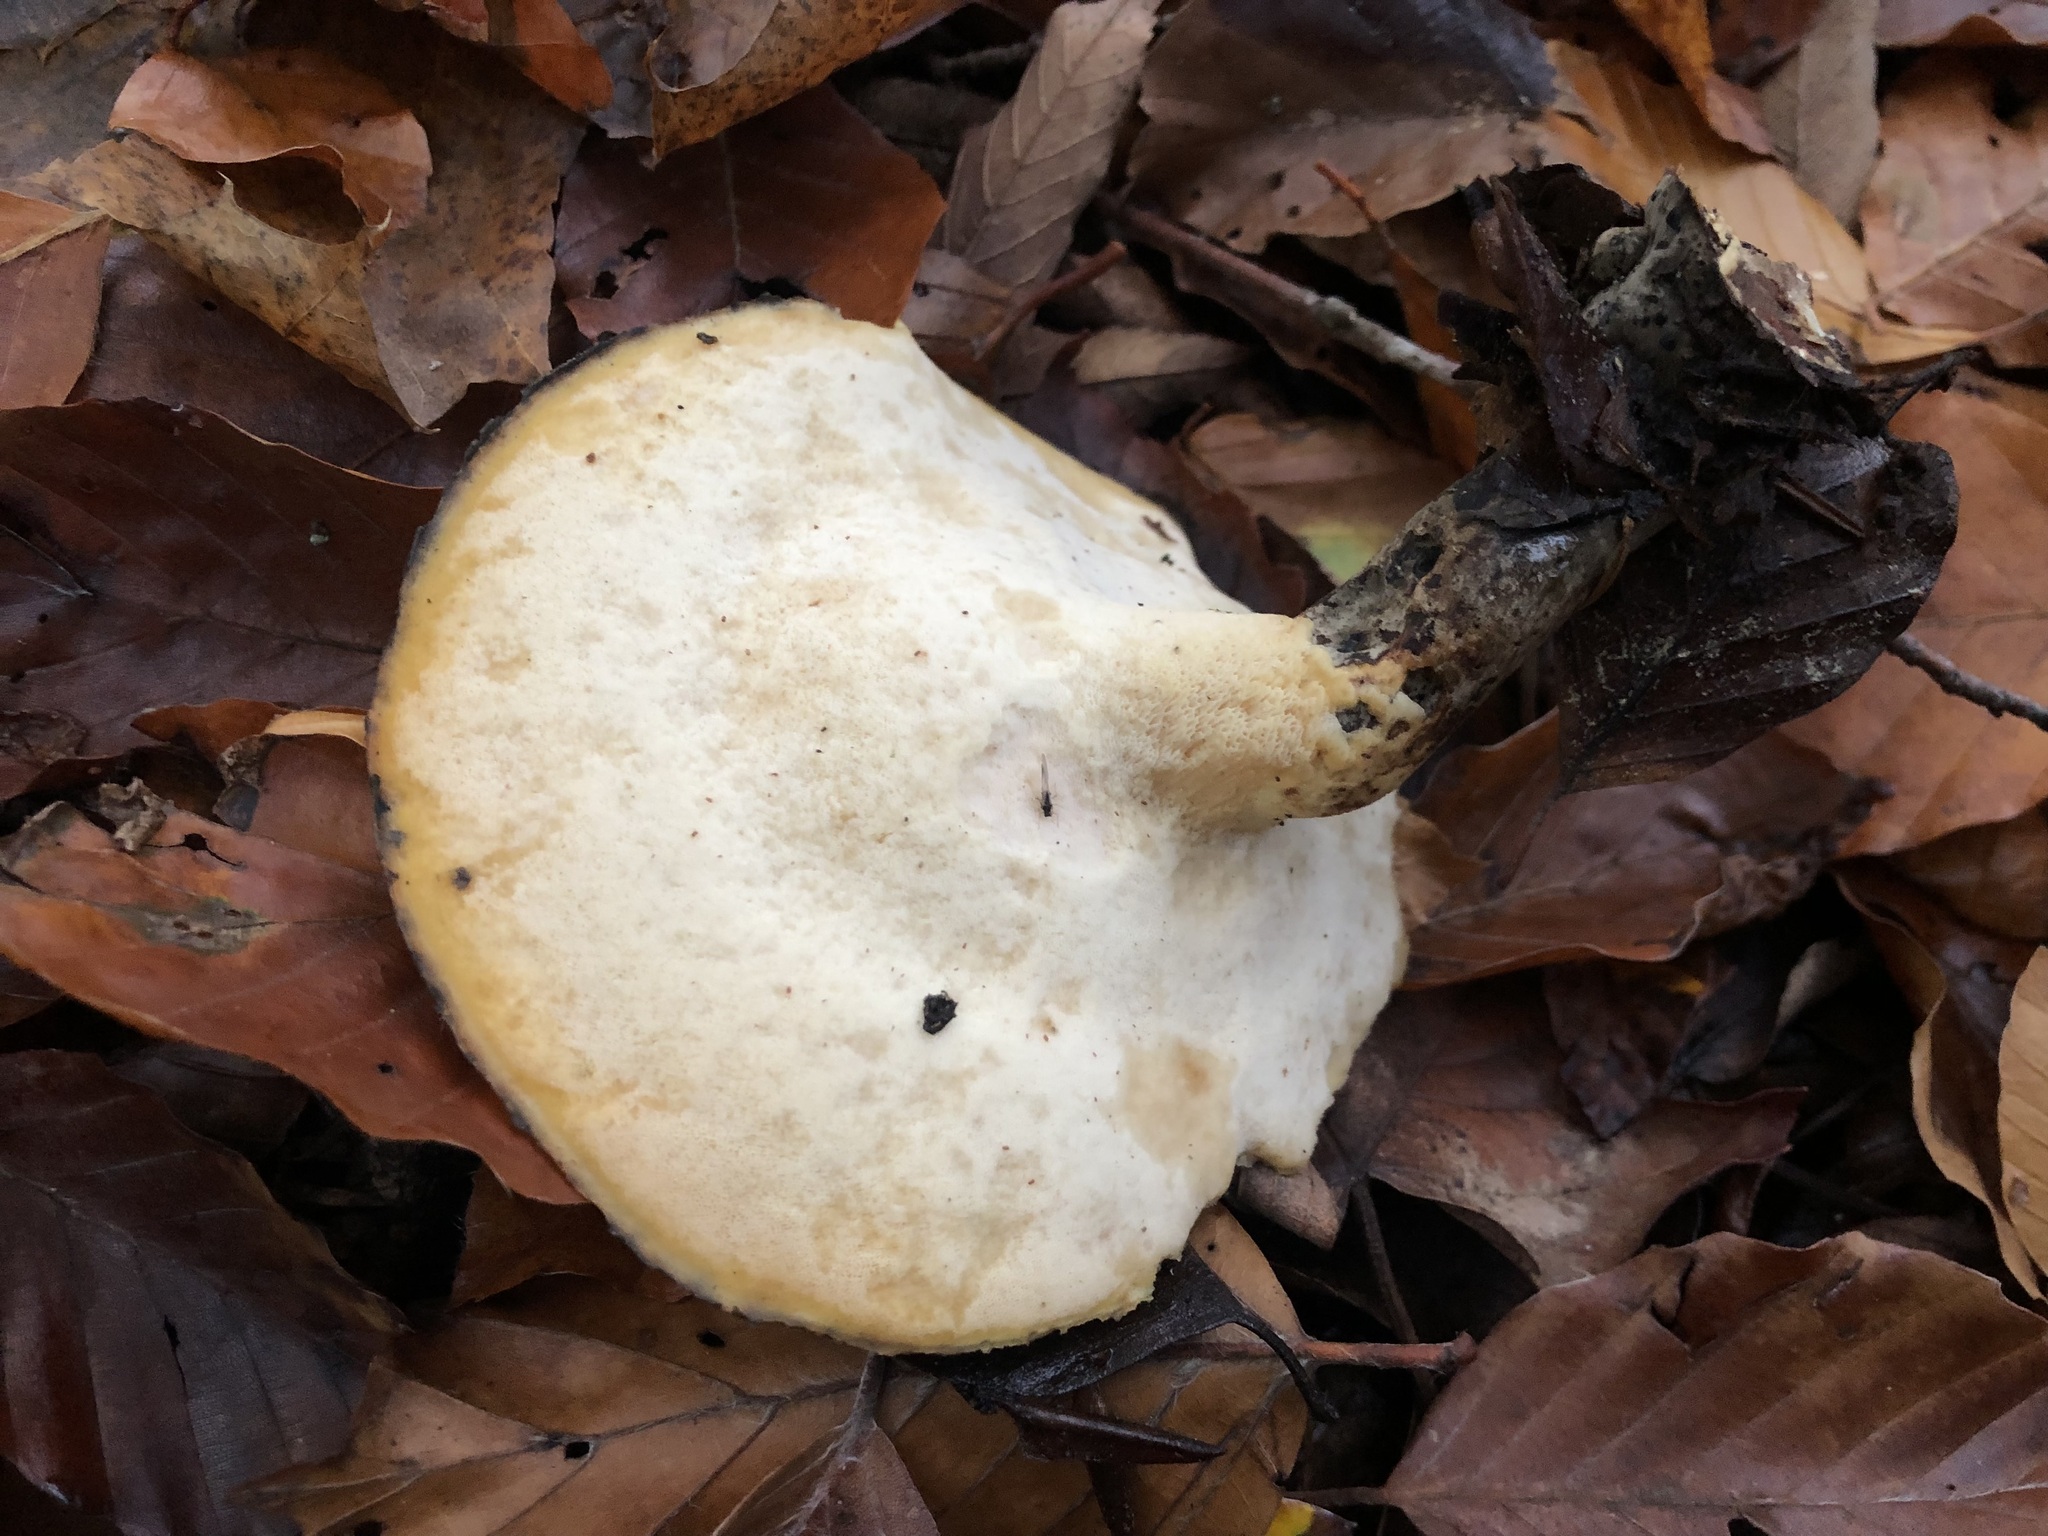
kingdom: Fungi
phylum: Basidiomycota
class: Agaricomycetes
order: Polyporales
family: Polyporaceae
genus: Picipes
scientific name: Picipes badius
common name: Bay polypore
